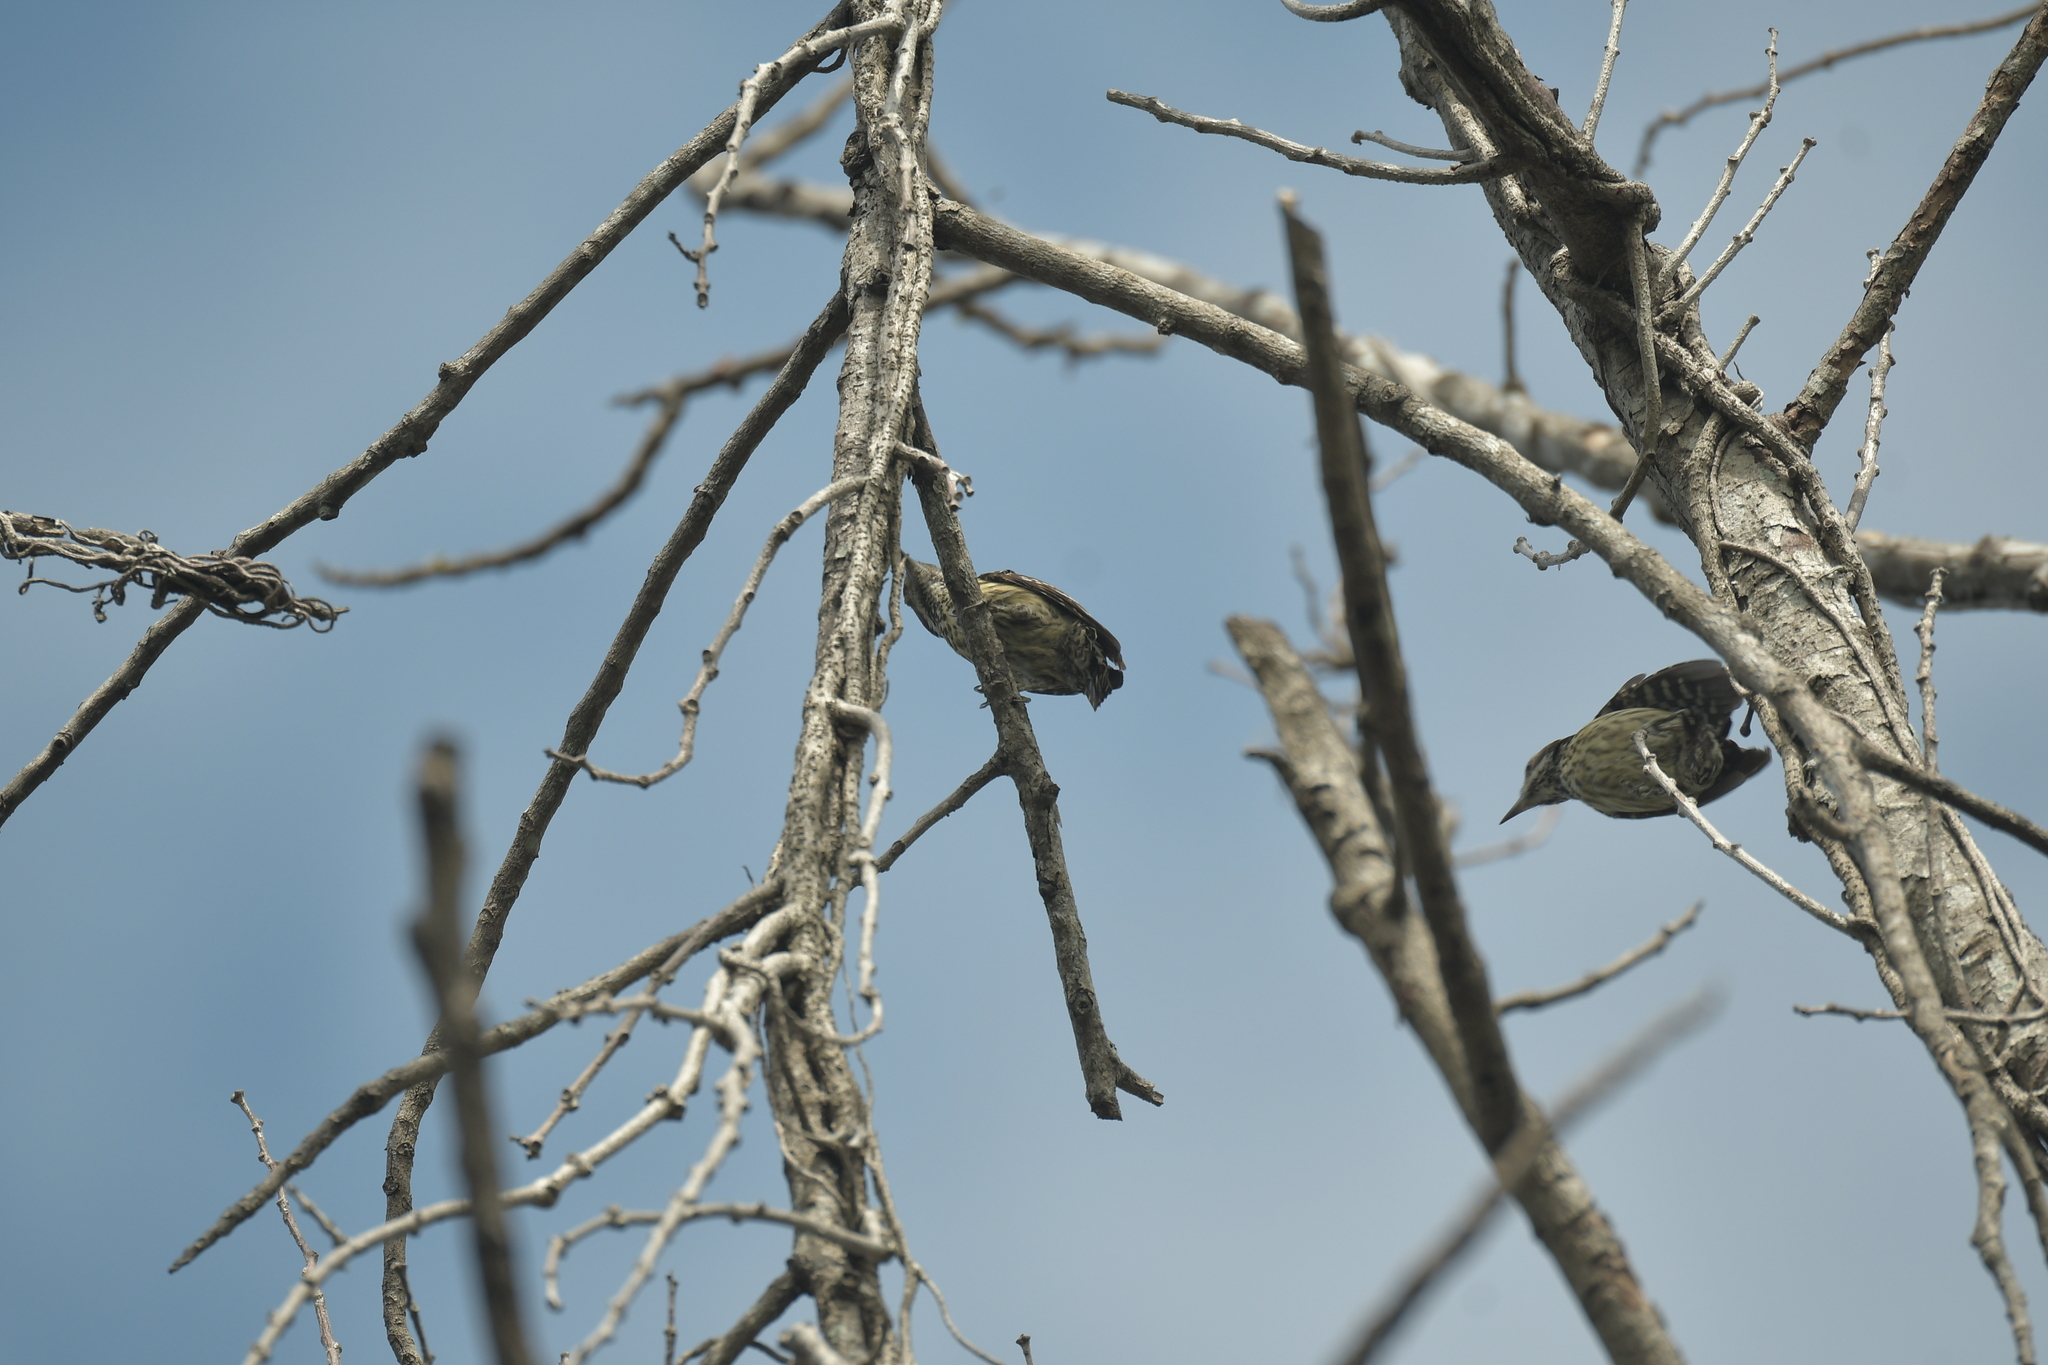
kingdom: Animalia
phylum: Chordata
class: Aves
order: Piciformes
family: Picidae
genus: Yungipicus
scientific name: Yungipicus maculatus
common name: Philippine pygmy woodpecker
